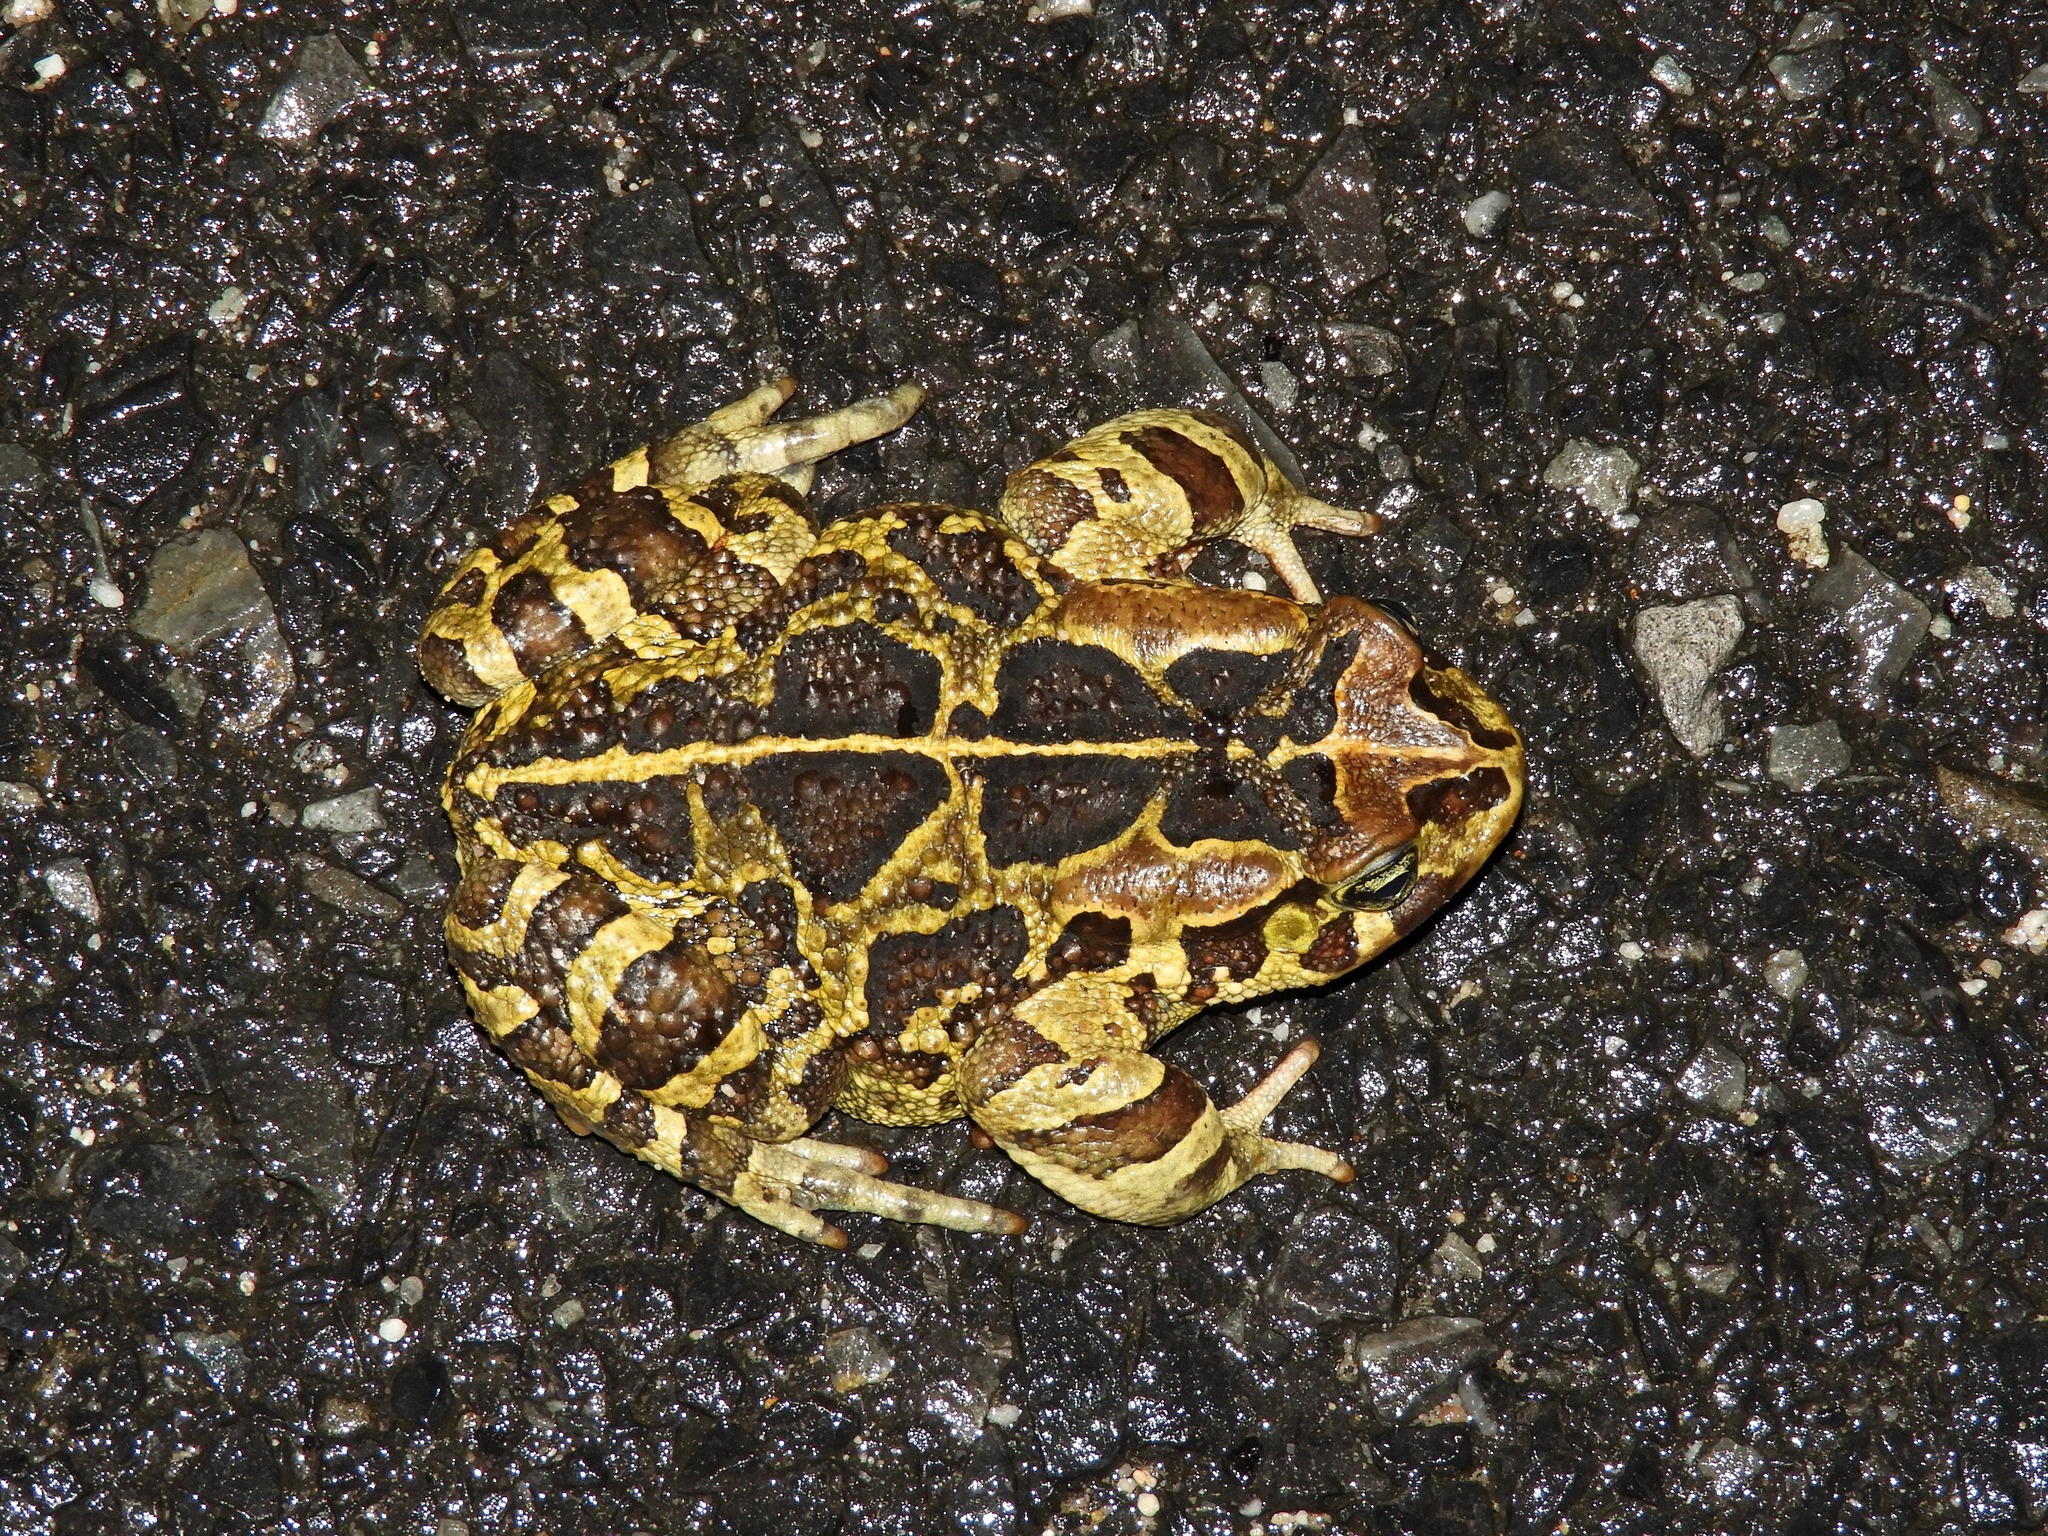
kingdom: Animalia
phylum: Chordata
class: Amphibia
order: Anura
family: Bufonidae
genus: Sclerophrys
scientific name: Sclerophrys pantherina
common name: Panther toad
